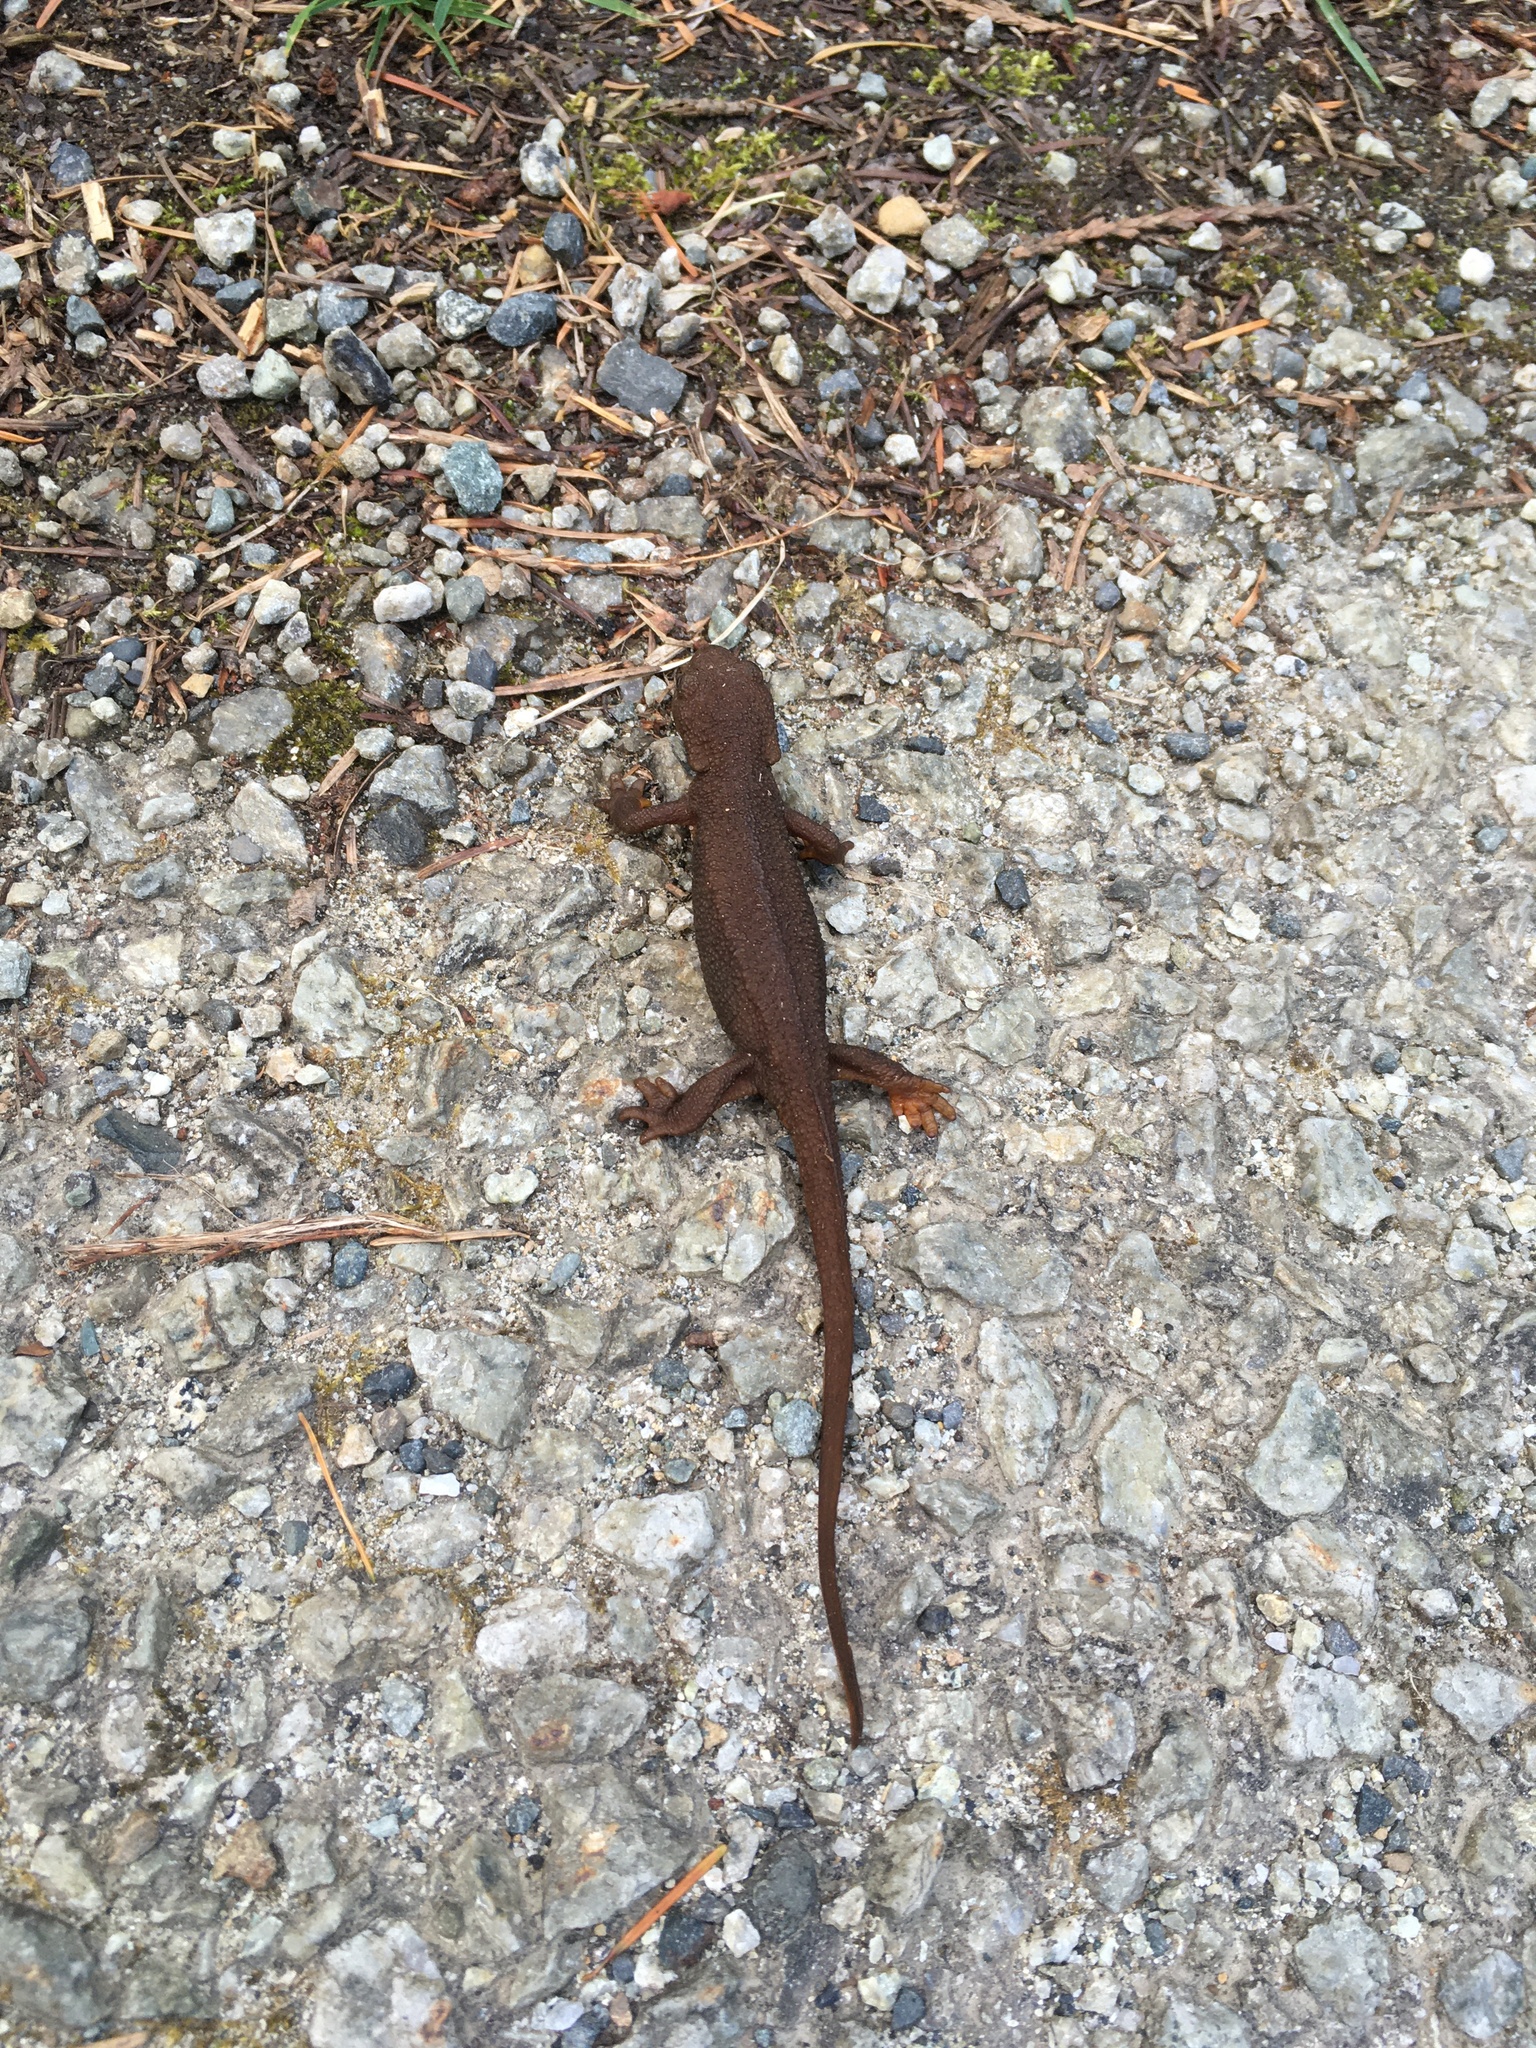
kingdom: Animalia
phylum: Chordata
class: Amphibia
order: Caudata
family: Salamandridae
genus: Taricha
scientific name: Taricha granulosa
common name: Roughskin newt
